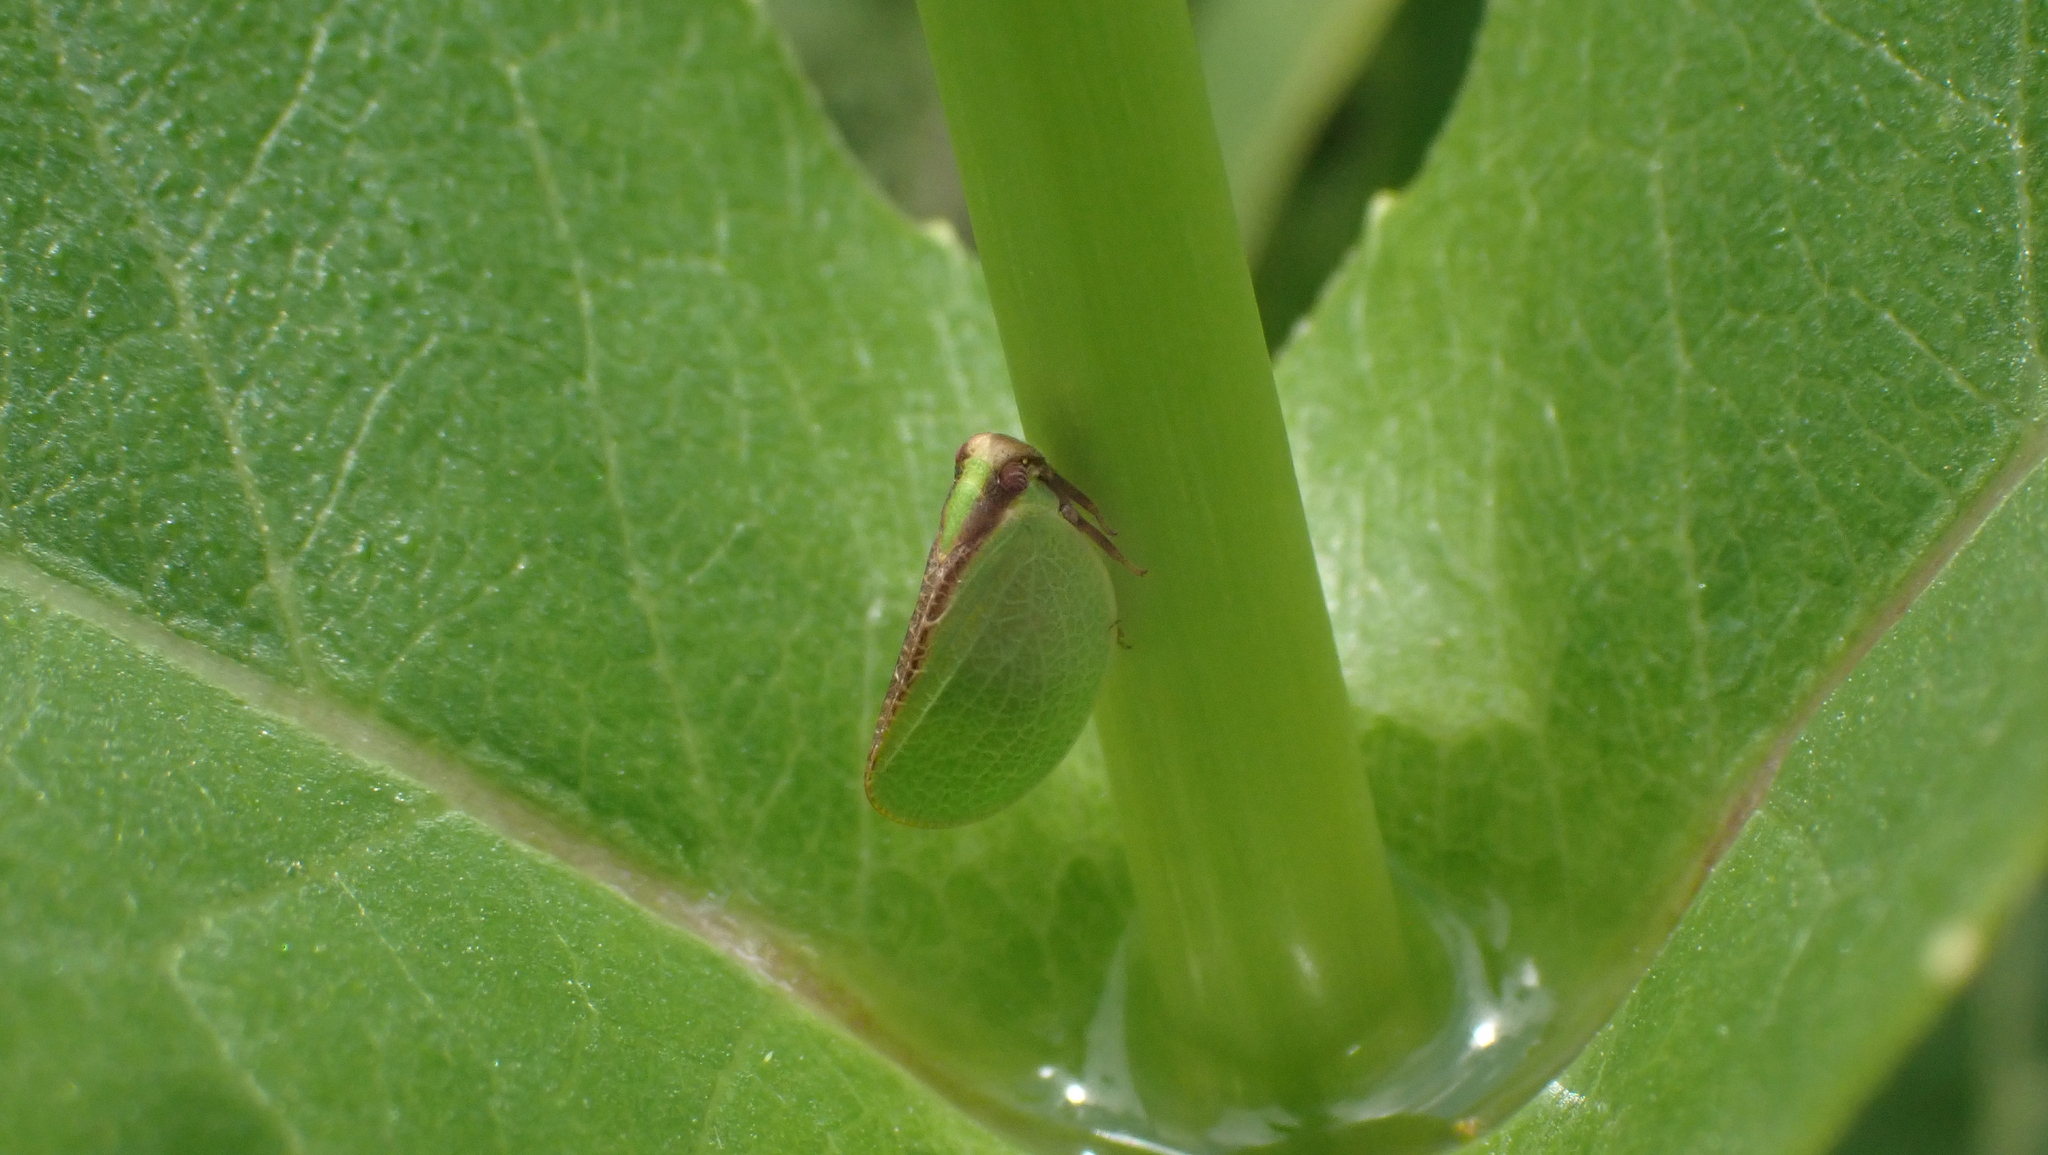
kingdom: Animalia
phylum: Arthropoda
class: Insecta
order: Hemiptera
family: Acanaloniidae
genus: Acanalonia
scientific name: Acanalonia bivittata
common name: Two-striped planthopper
